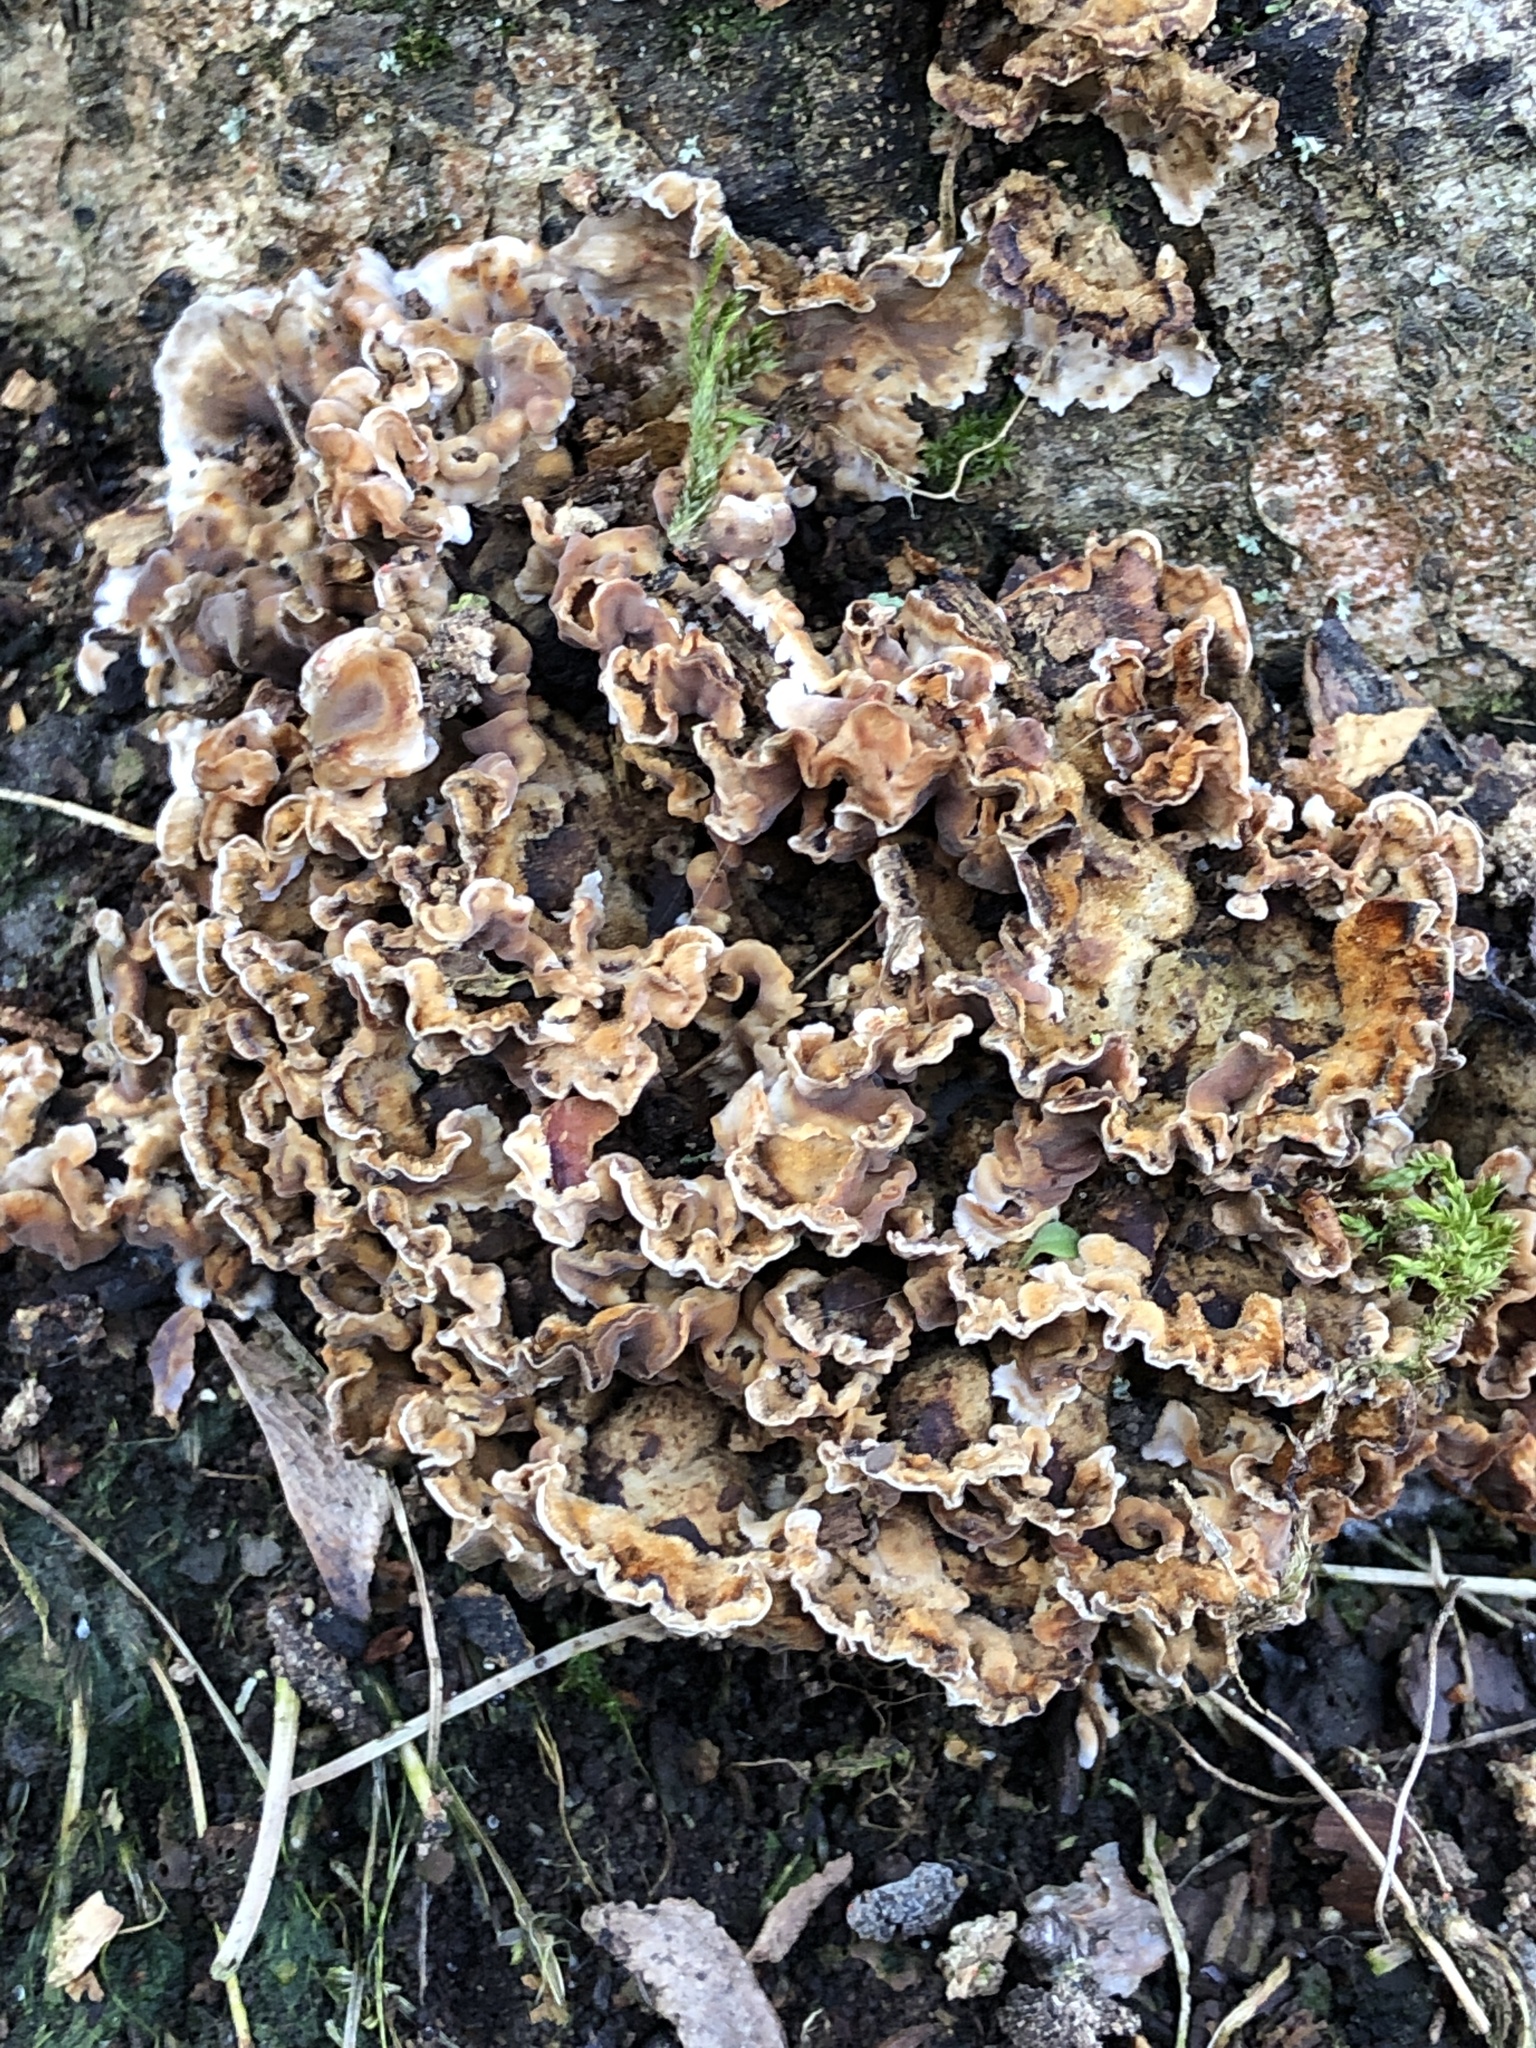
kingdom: Fungi
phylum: Basidiomycota
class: Agaricomycetes
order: Russulales
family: Stereaceae
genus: Stereum
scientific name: Stereum hirsutum
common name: Hairy curtain crust
